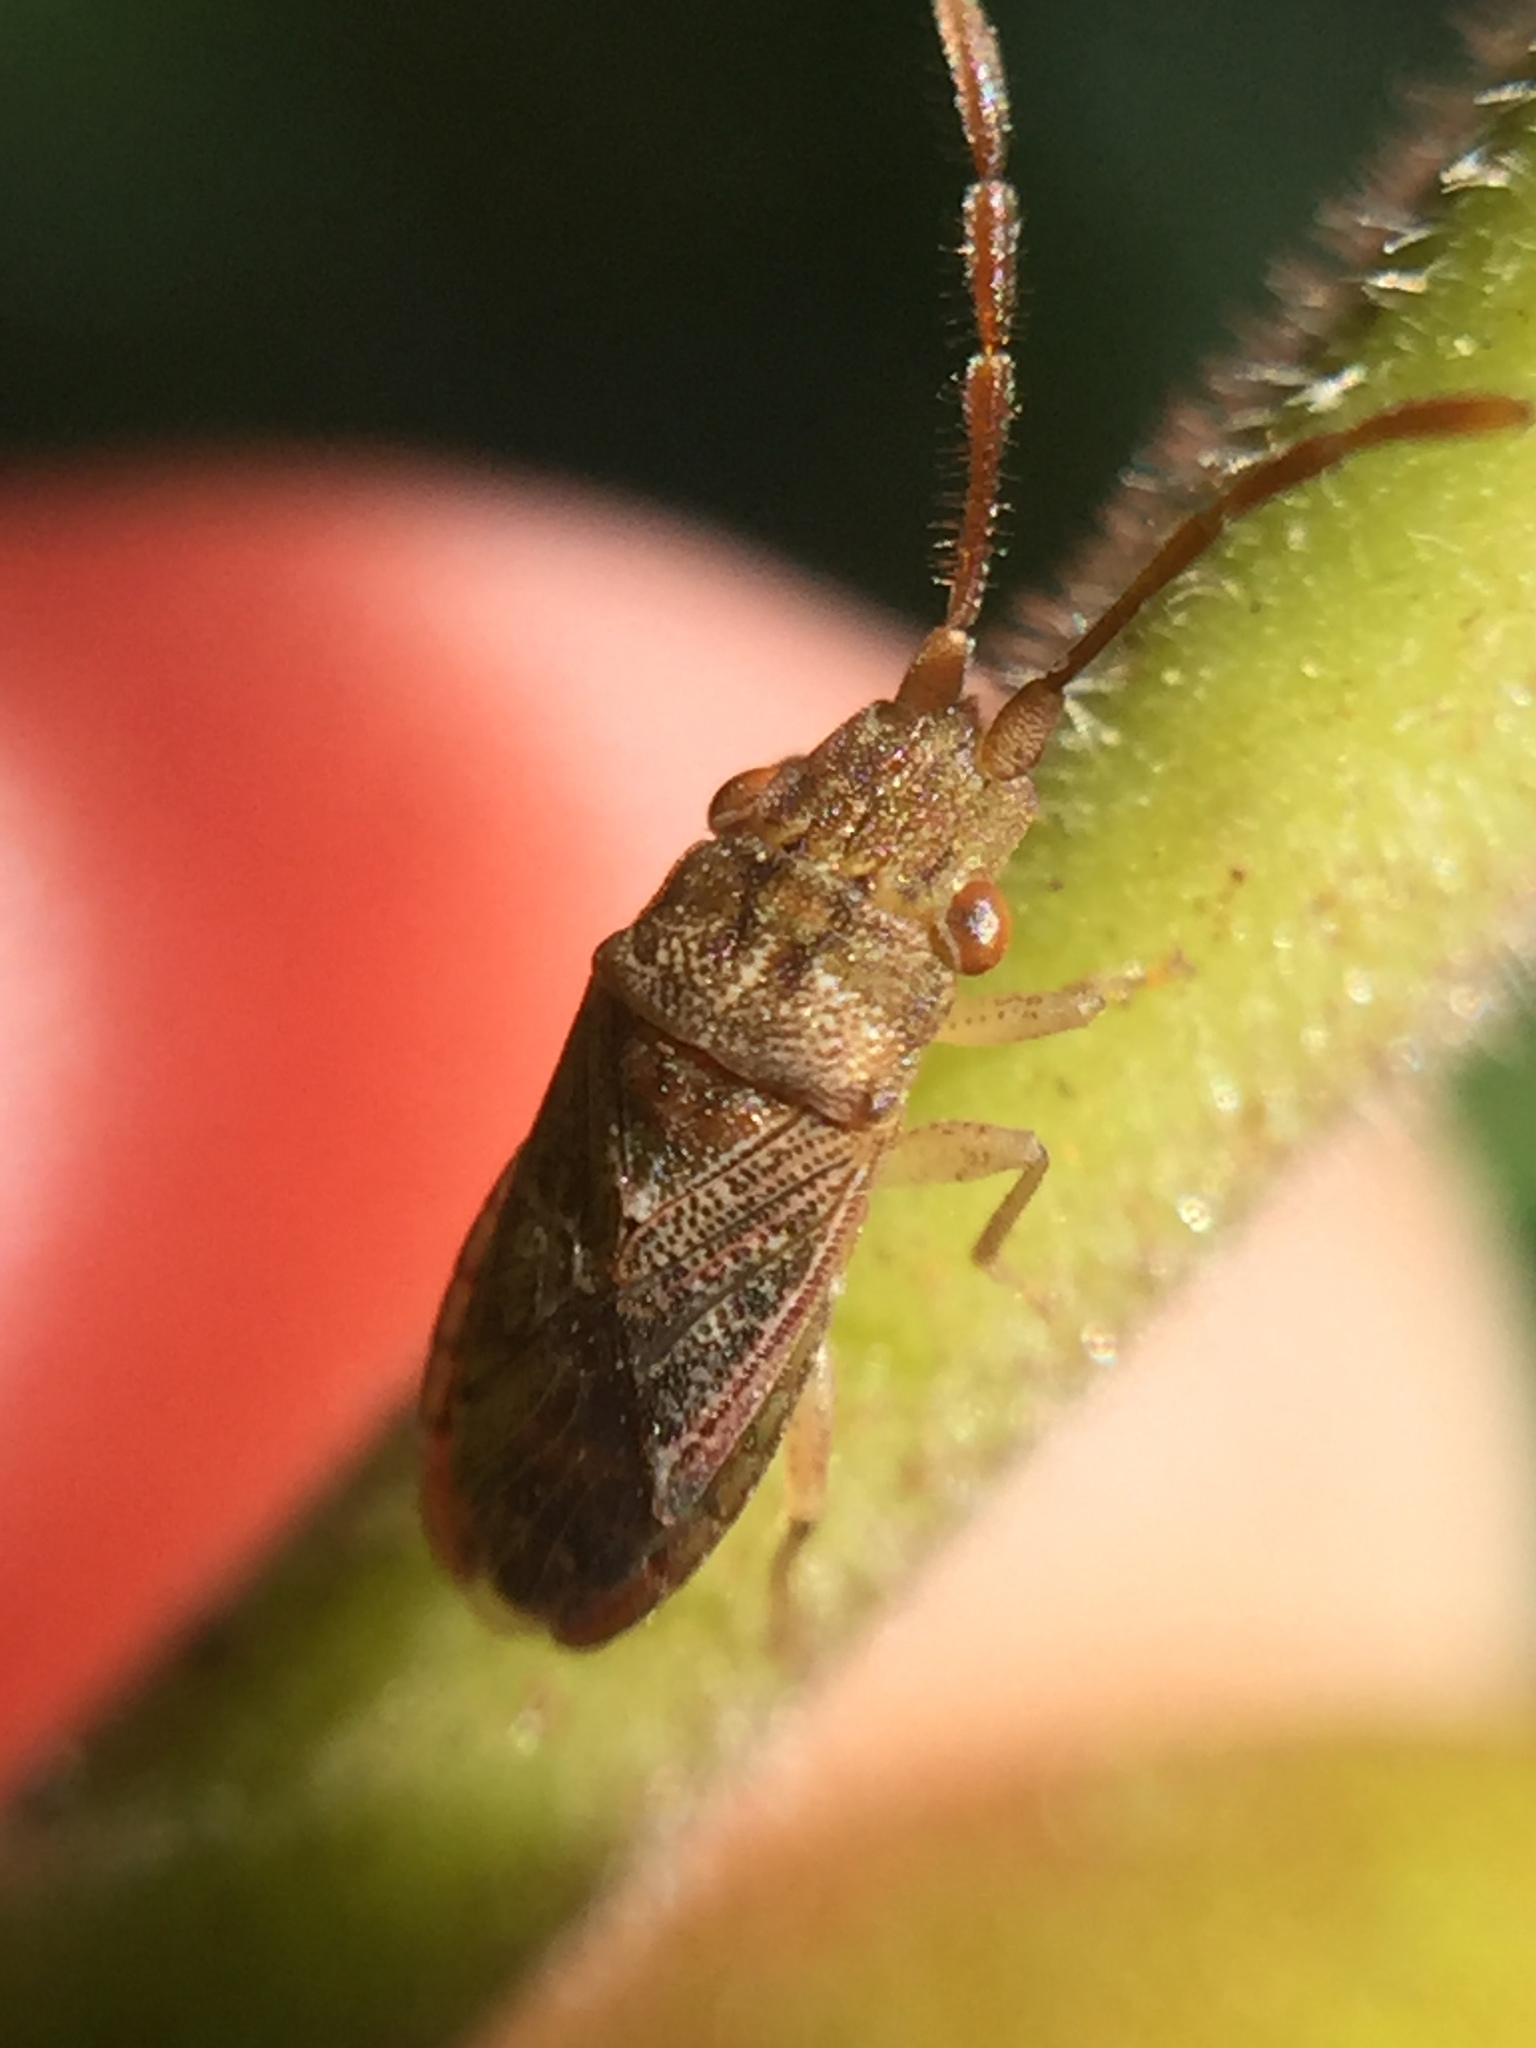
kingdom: Animalia
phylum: Arthropoda
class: Insecta
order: Hemiptera
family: Meschiidae
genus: Meschia
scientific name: Meschia barrowensis
